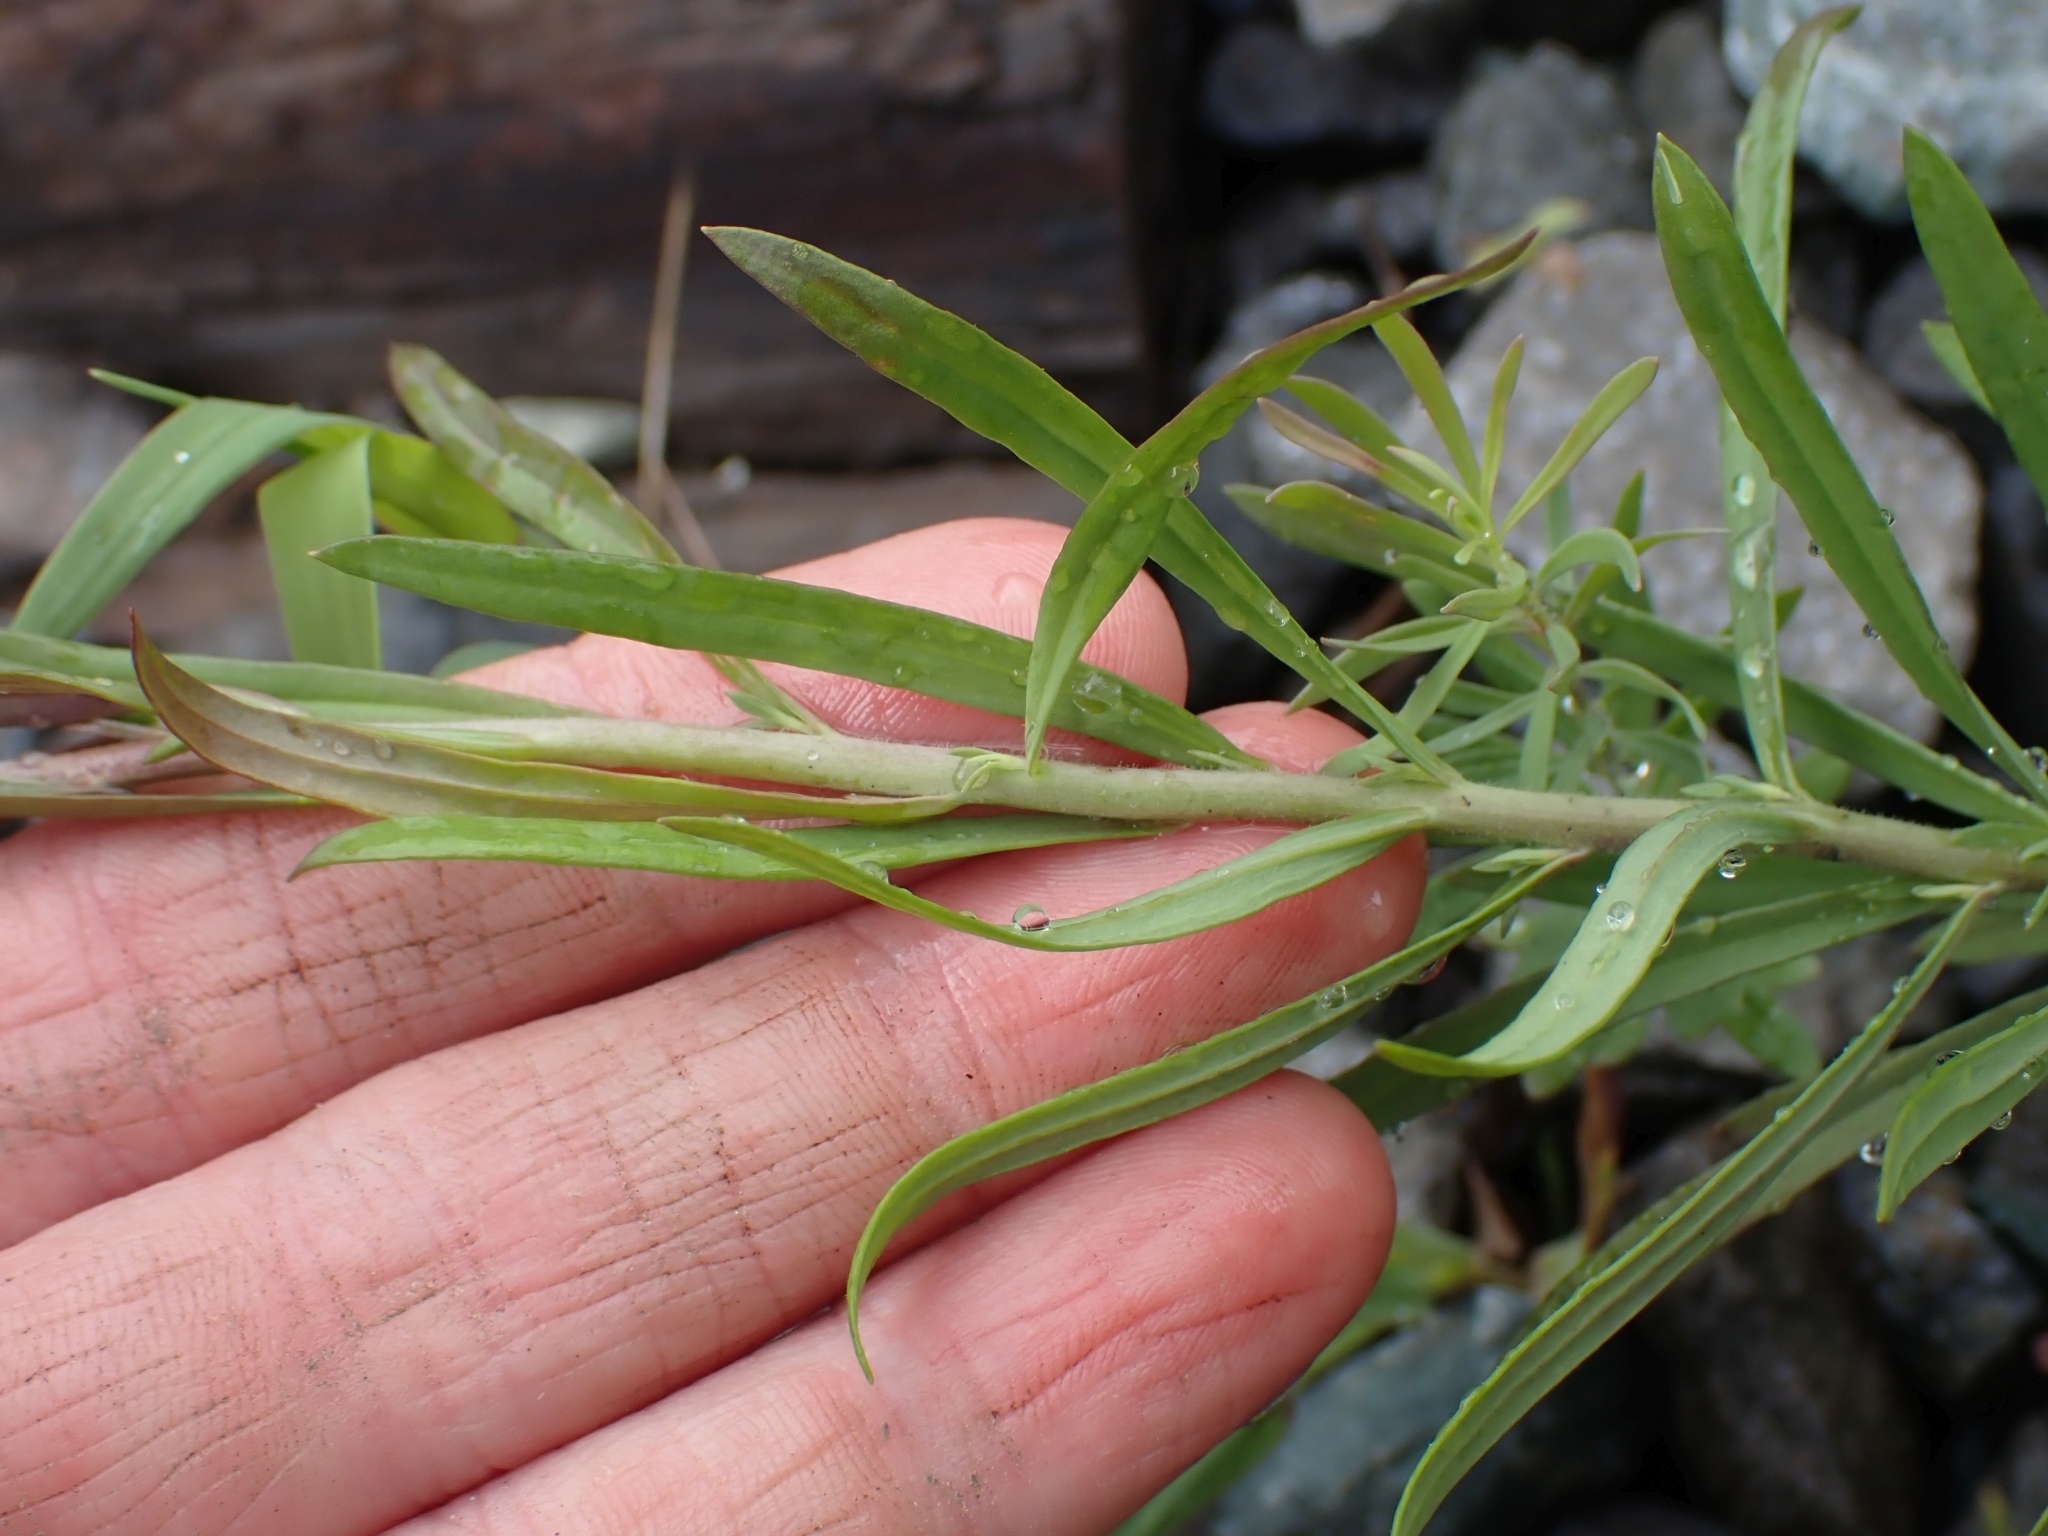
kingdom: Plantae
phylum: Tracheophyta
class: Magnoliopsida
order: Lamiales
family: Plantaginaceae
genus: Linaria
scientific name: Linaria vulgaris
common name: Butter and eggs
